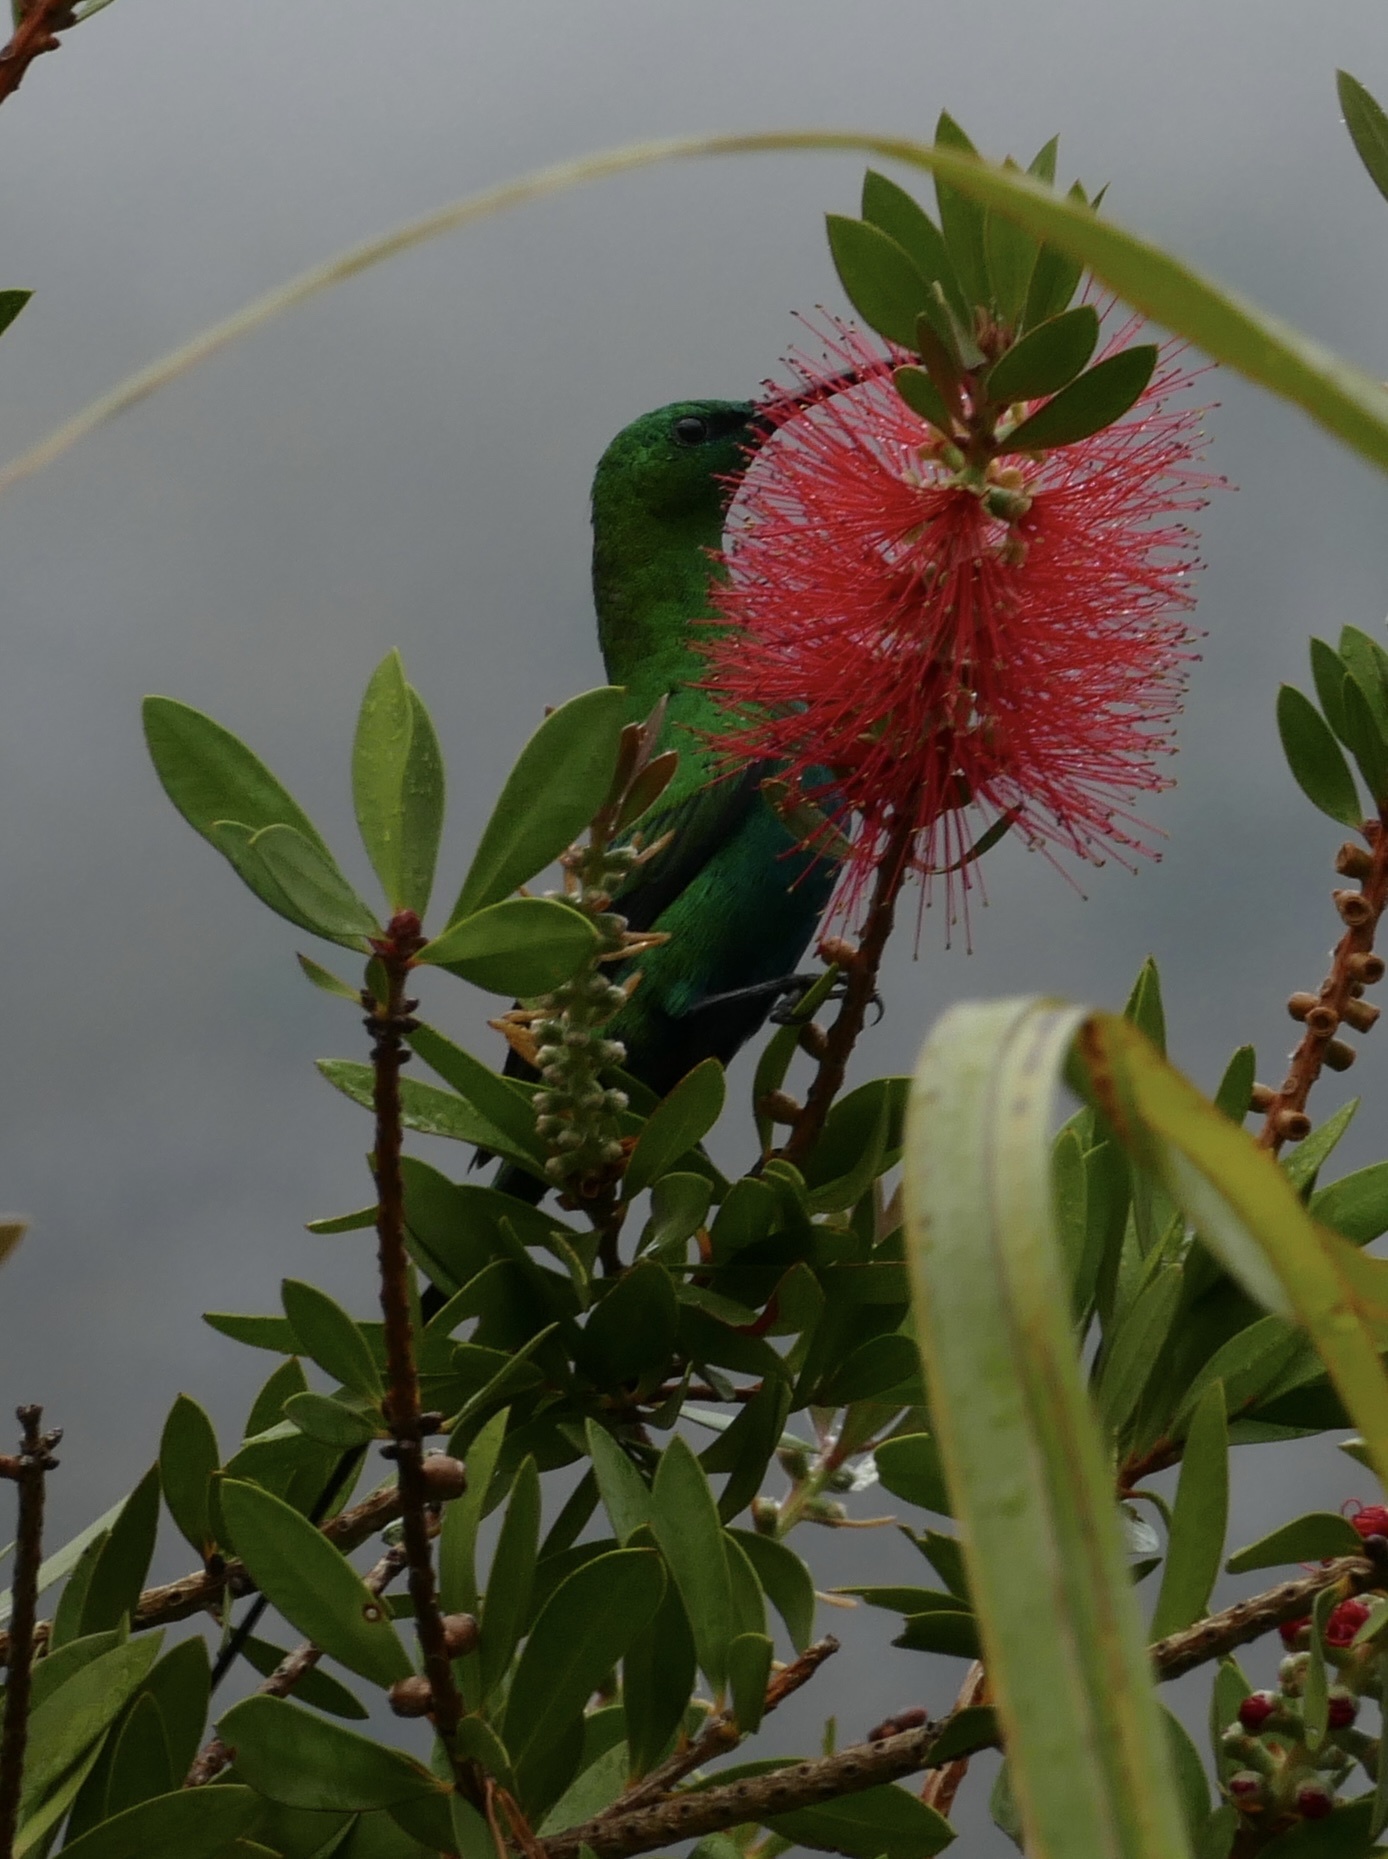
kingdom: Animalia
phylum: Chordata
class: Aves
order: Passeriformes
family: Nectariniidae
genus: Nectarinia
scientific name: Nectarinia famosa
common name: Malachite sunbird
